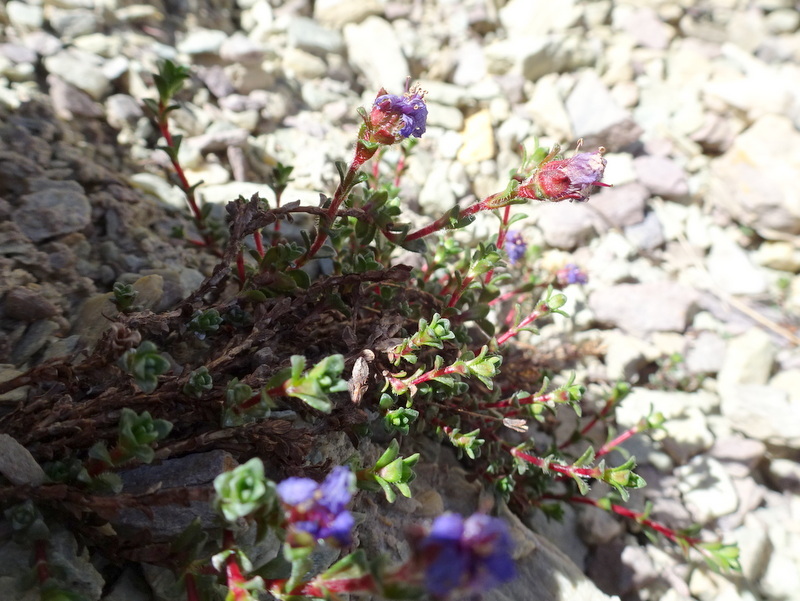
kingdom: Plantae
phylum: Tracheophyta
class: Magnoliopsida
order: Saxifragales
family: Saxifragaceae
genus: Saxifraga
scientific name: Saxifraga oppositifolia
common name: Purple saxifrage
